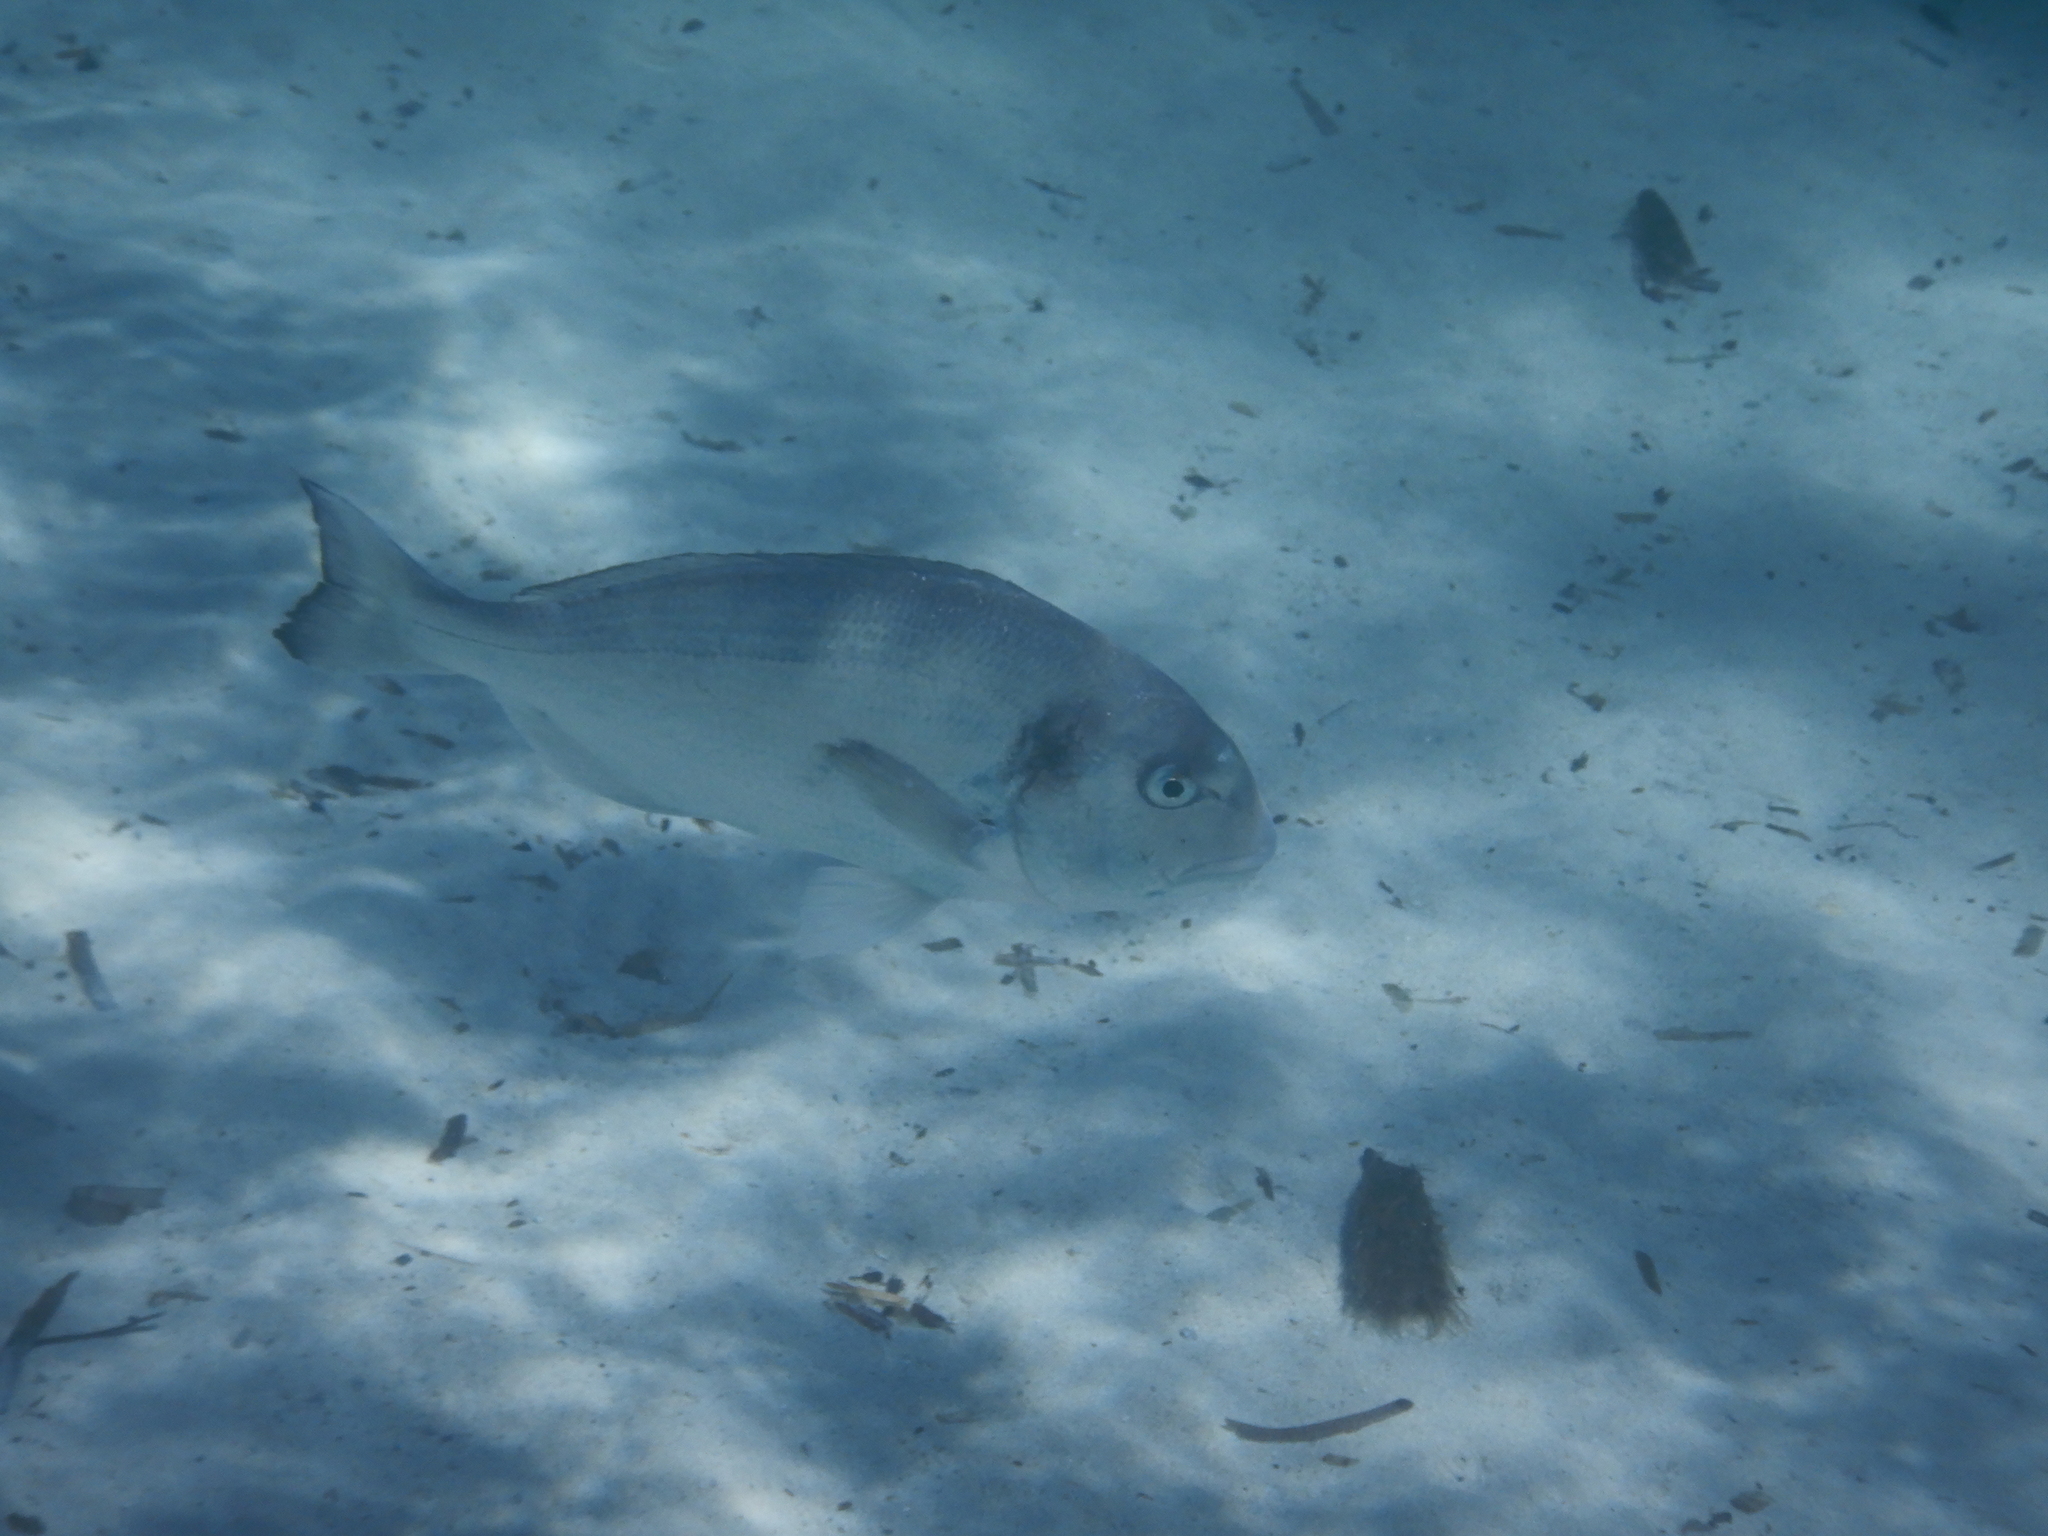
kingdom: Animalia
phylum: Chordata
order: Perciformes
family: Sparidae
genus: Sparus
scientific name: Sparus aurata
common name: Gilthead
